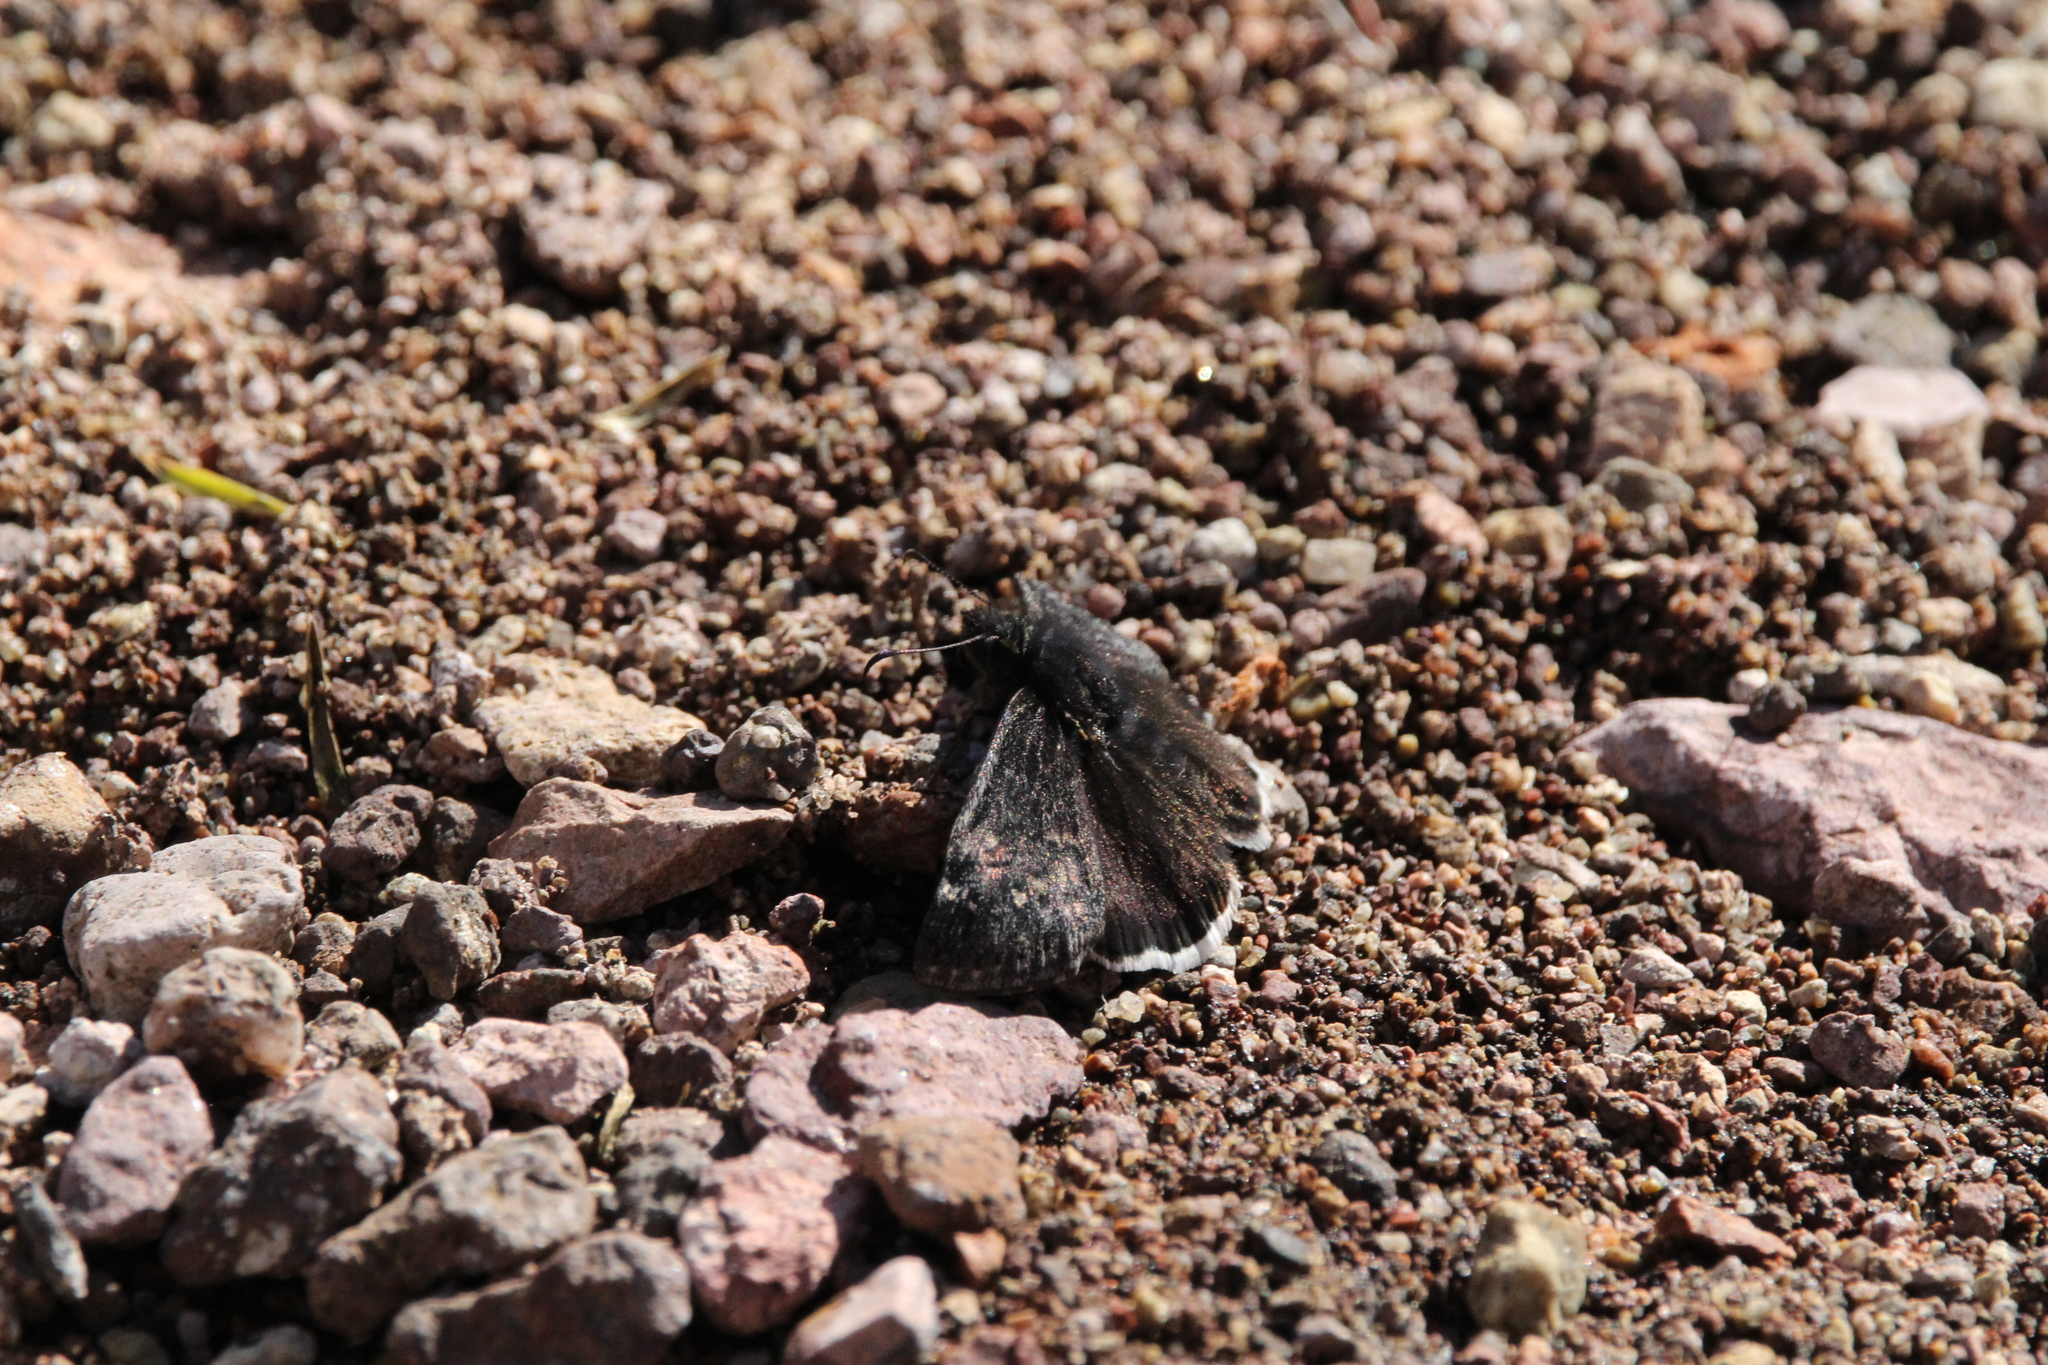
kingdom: Animalia
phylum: Arthropoda
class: Insecta
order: Lepidoptera
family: Hesperiidae
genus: Erynnis
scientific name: Erynnis funeralis
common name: Funereal duskywing
